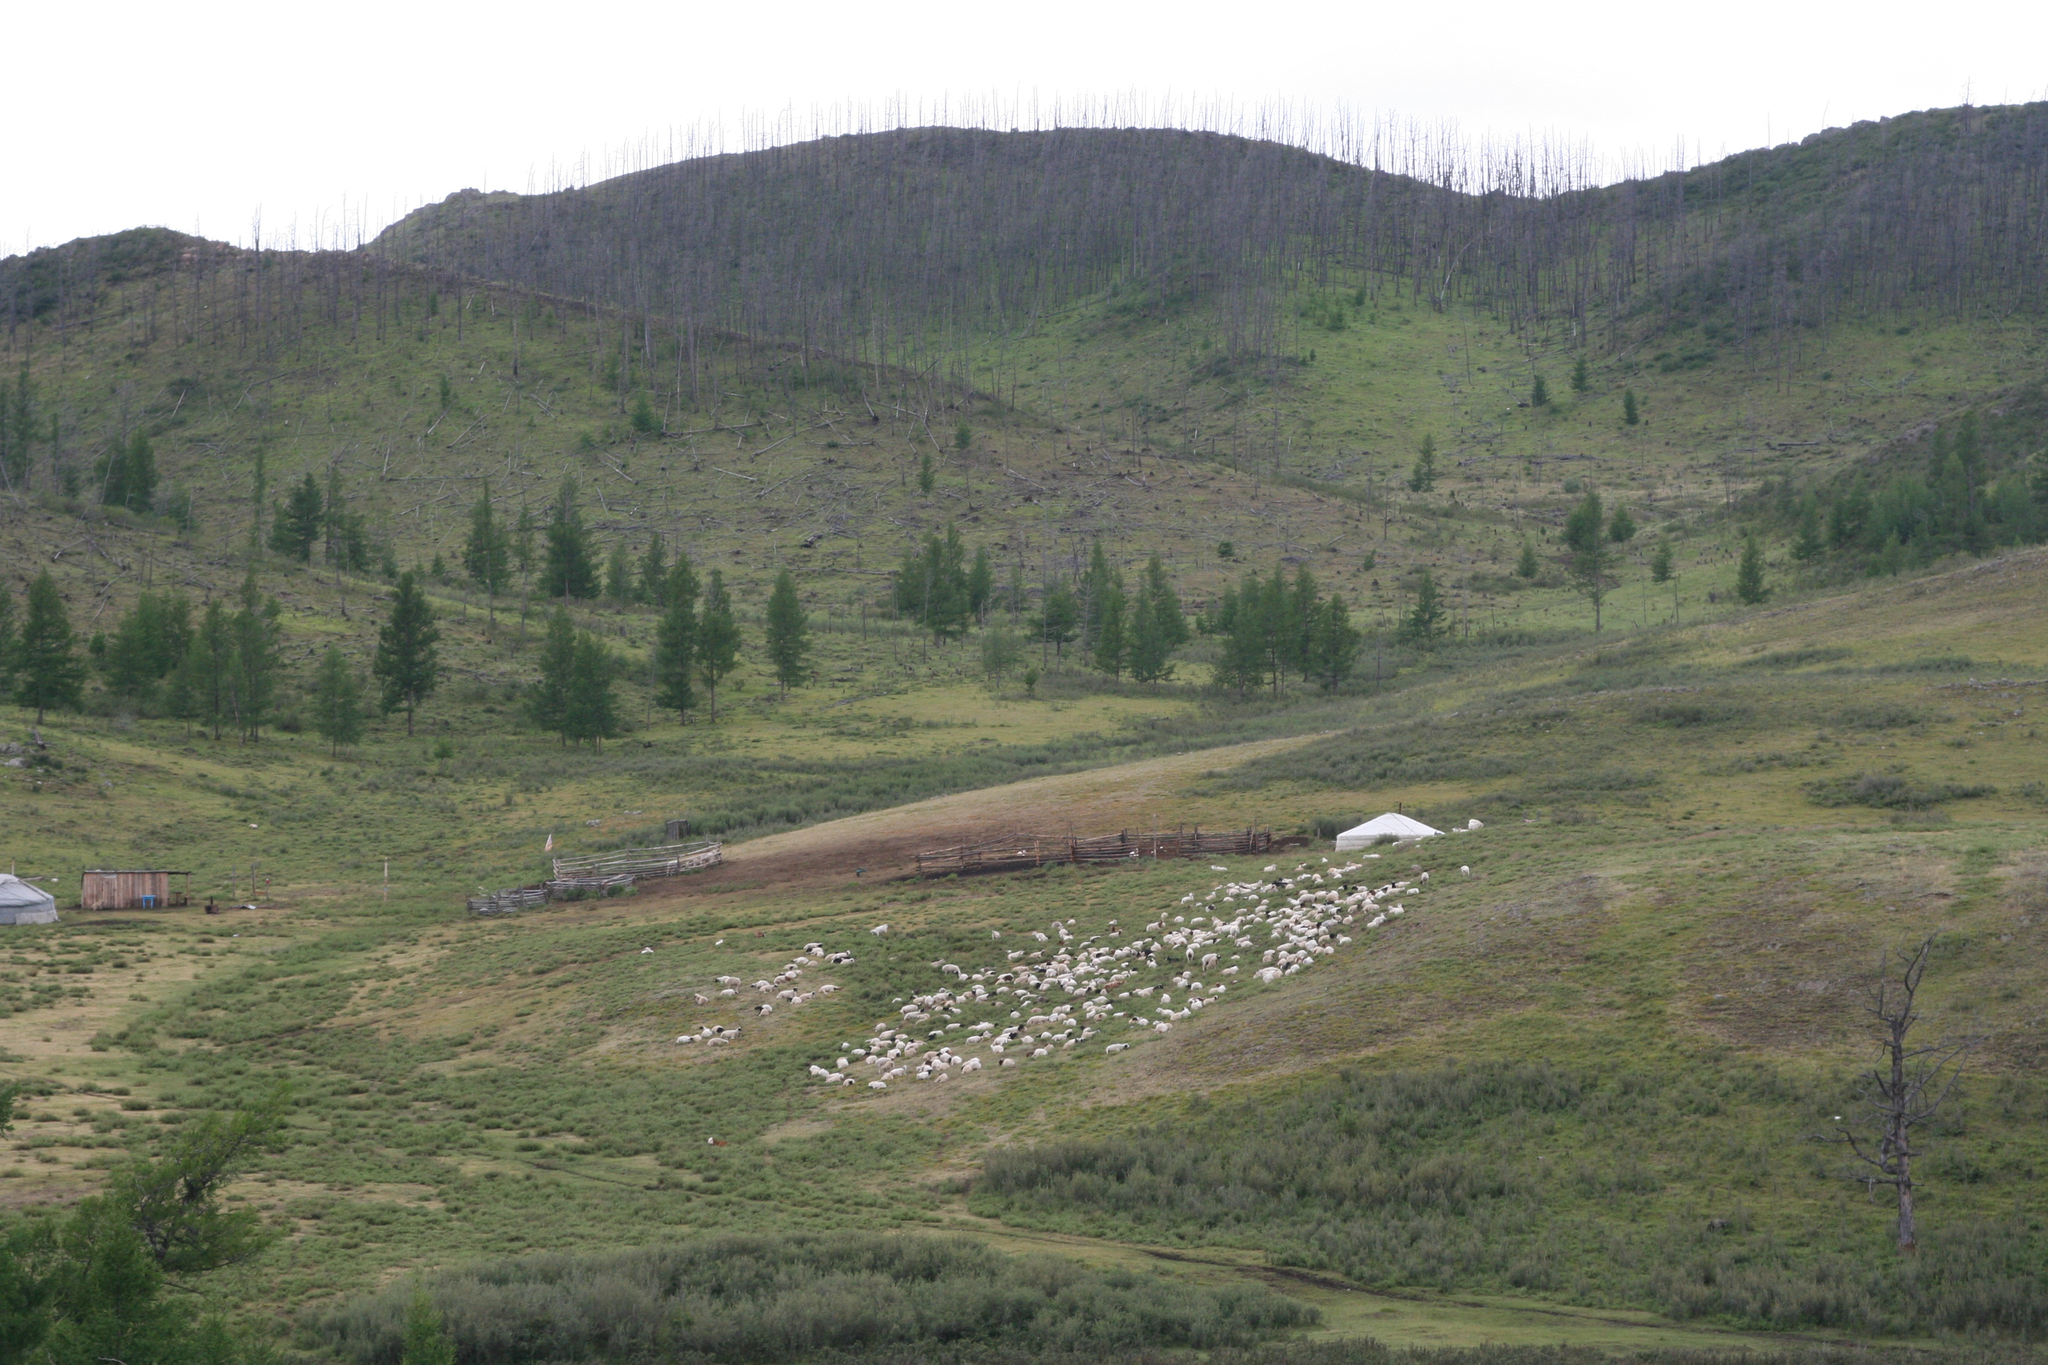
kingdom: Plantae
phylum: Tracheophyta
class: Pinopsida
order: Pinales
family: Pinaceae
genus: Larix
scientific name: Larix sibirica
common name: Siberian larch
